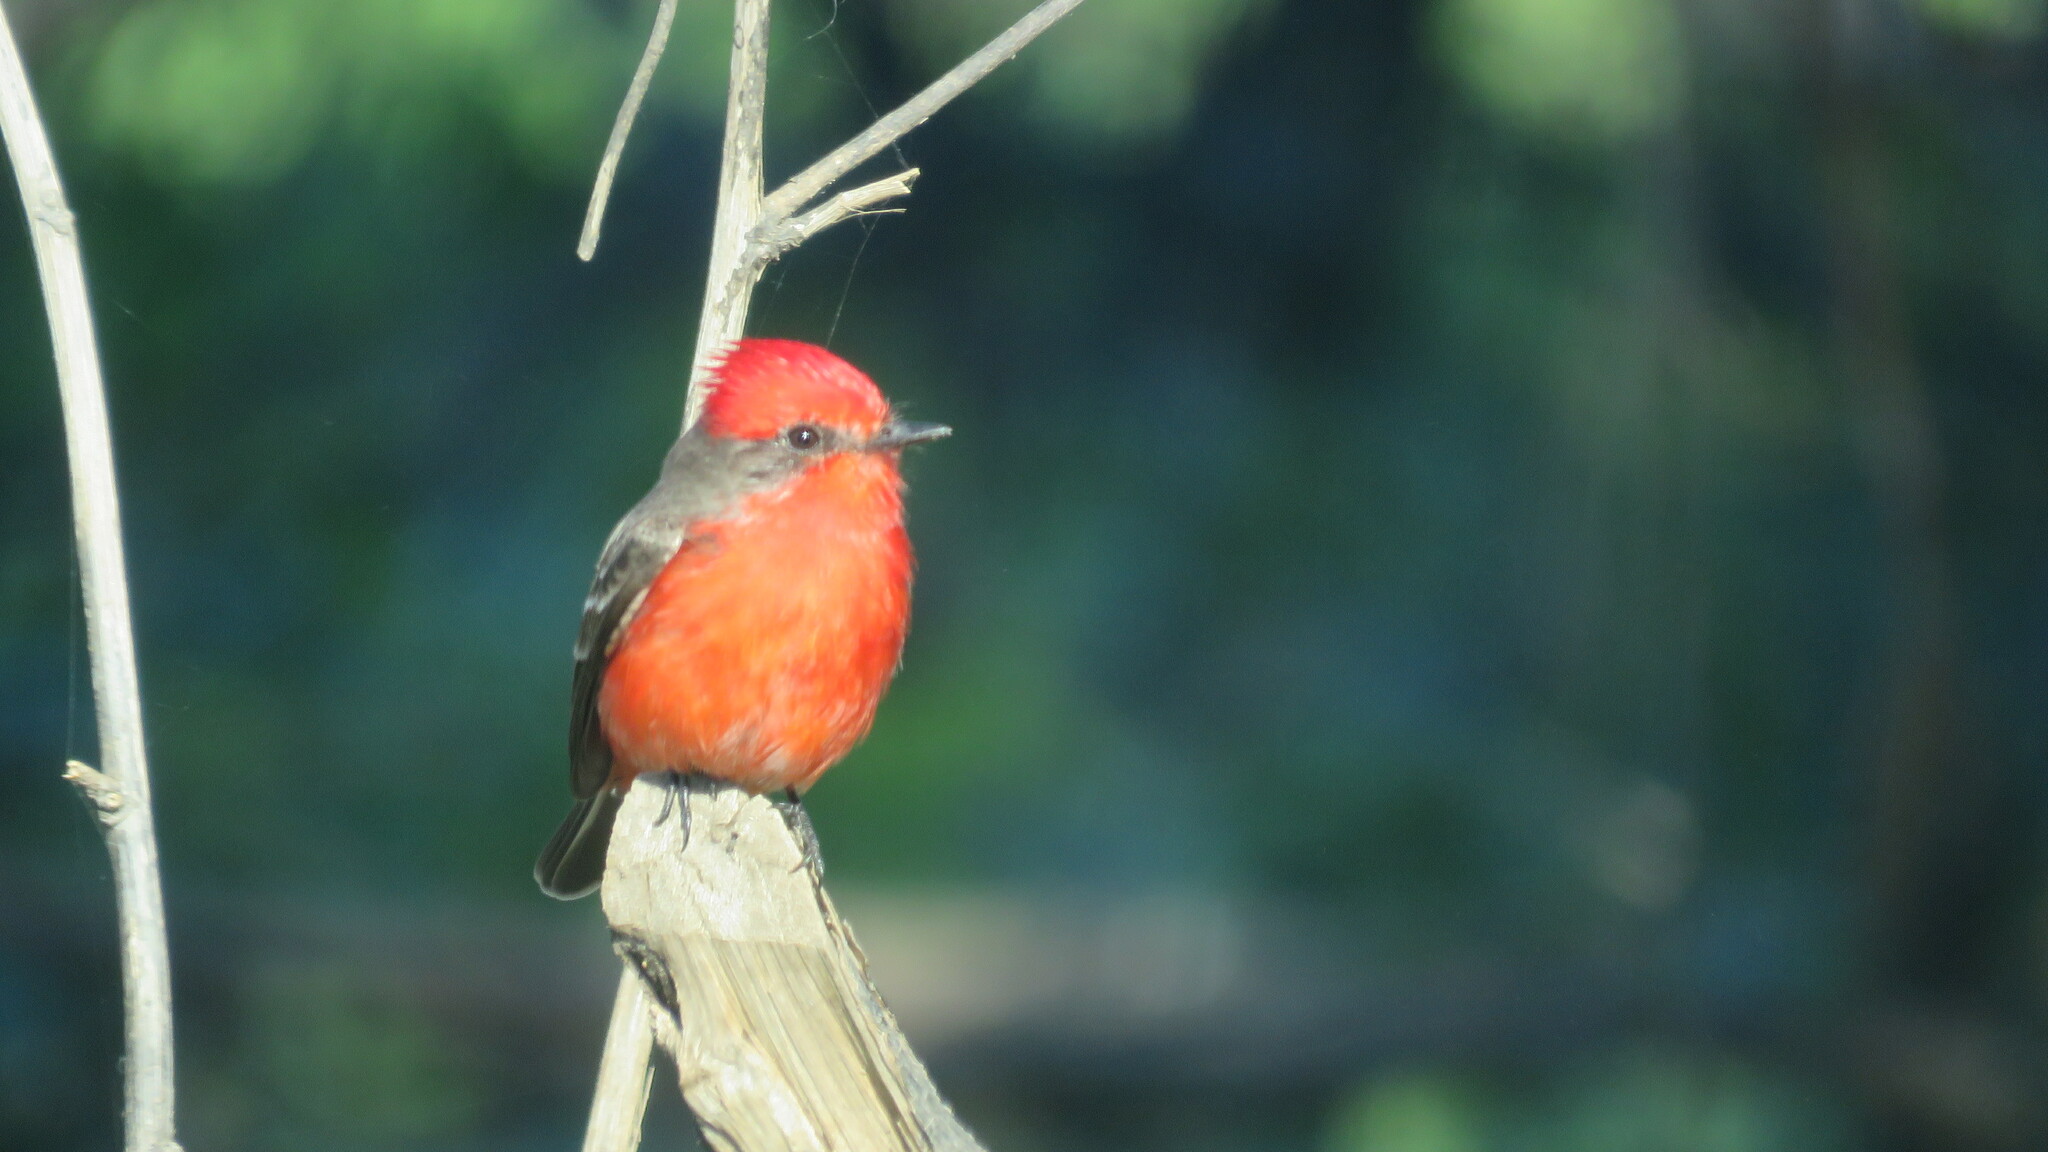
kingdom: Animalia
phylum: Chordata
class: Aves
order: Passeriformes
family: Tyrannidae
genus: Pyrocephalus
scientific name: Pyrocephalus rubinus
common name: Vermilion flycatcher
